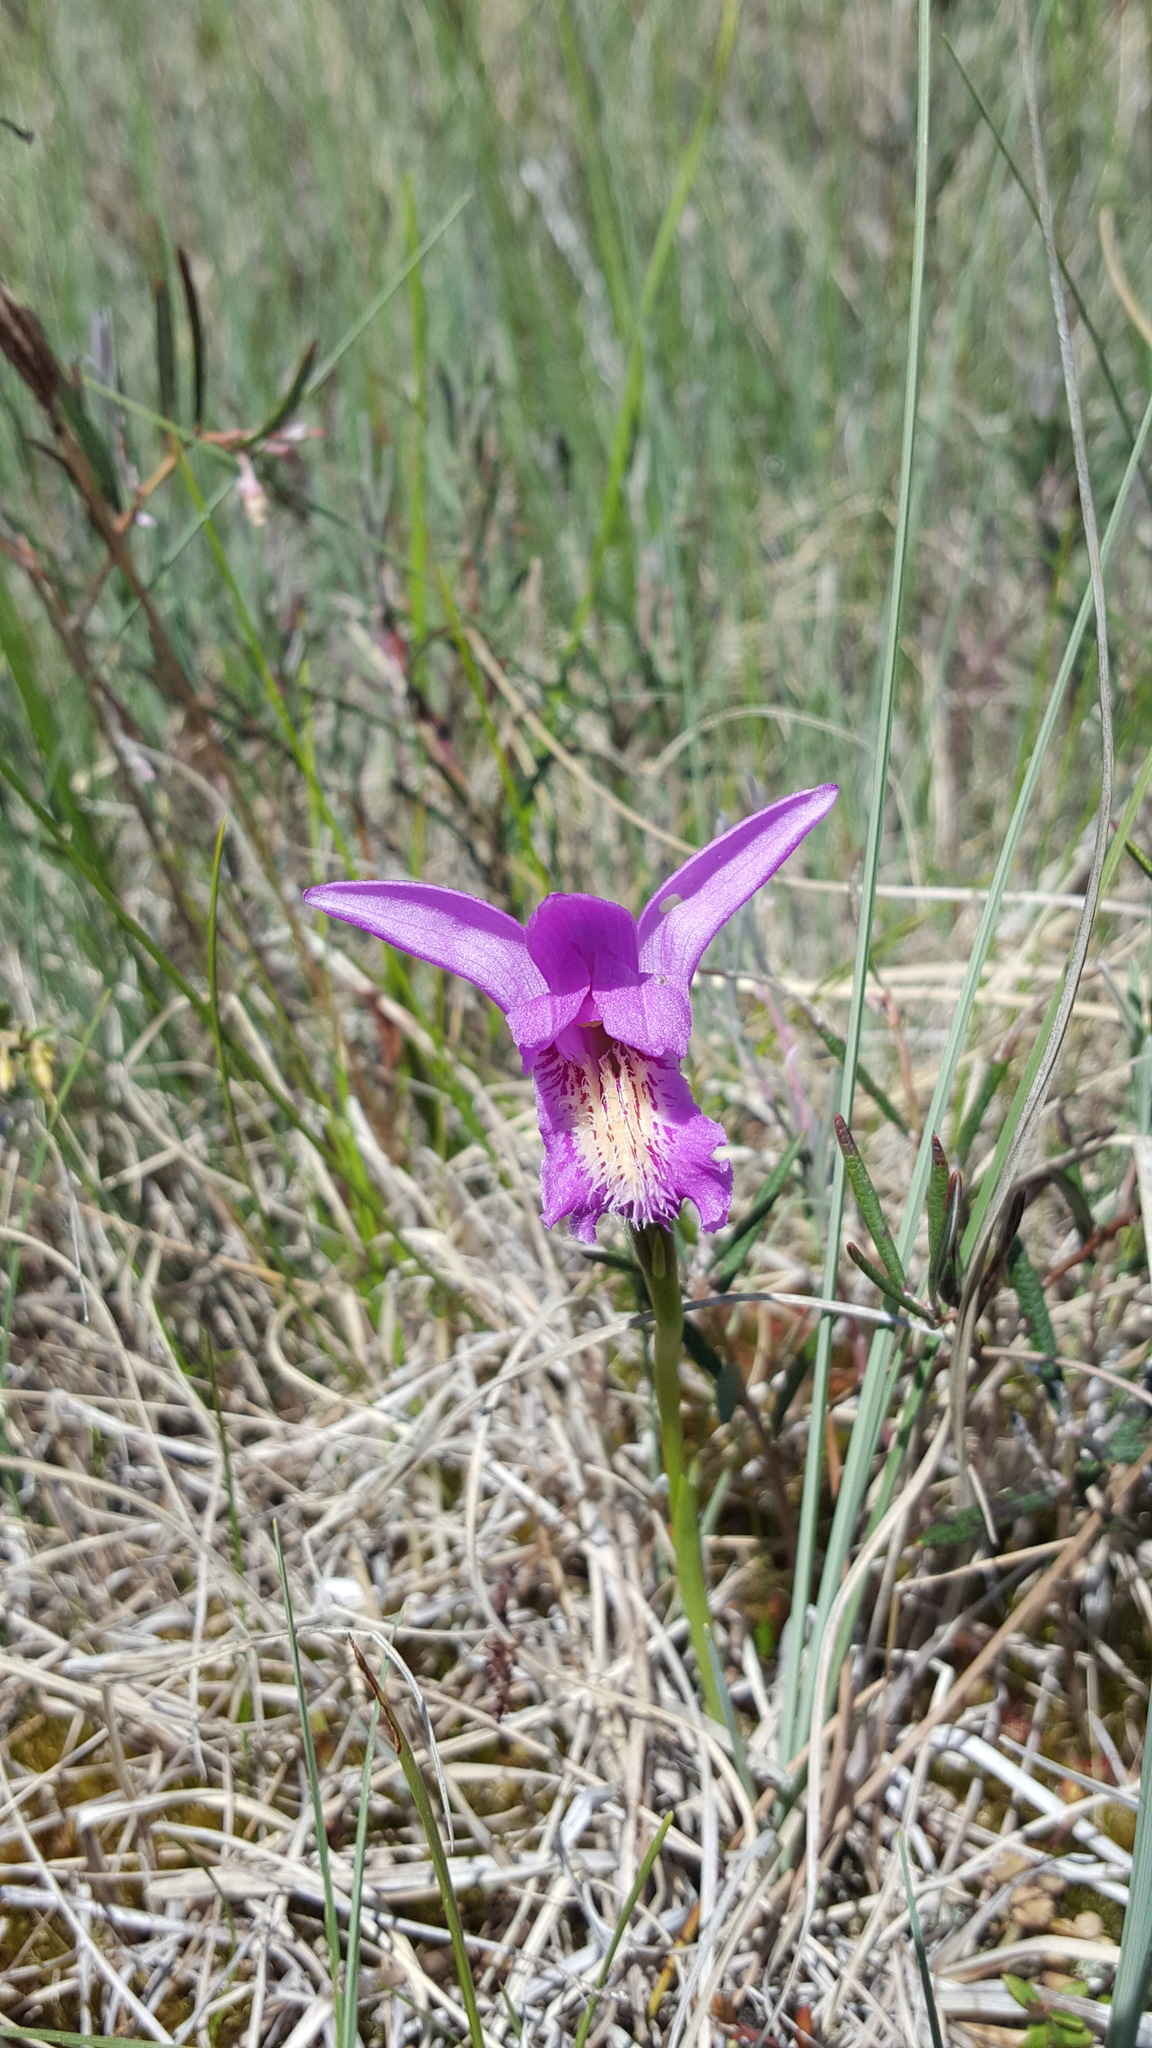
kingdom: Plantae
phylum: Tracheophyta
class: Liliopsida
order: Asparagales
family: Orchidaceae
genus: Arethusa
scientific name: Arethusa bulbosa
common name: Arethusa
